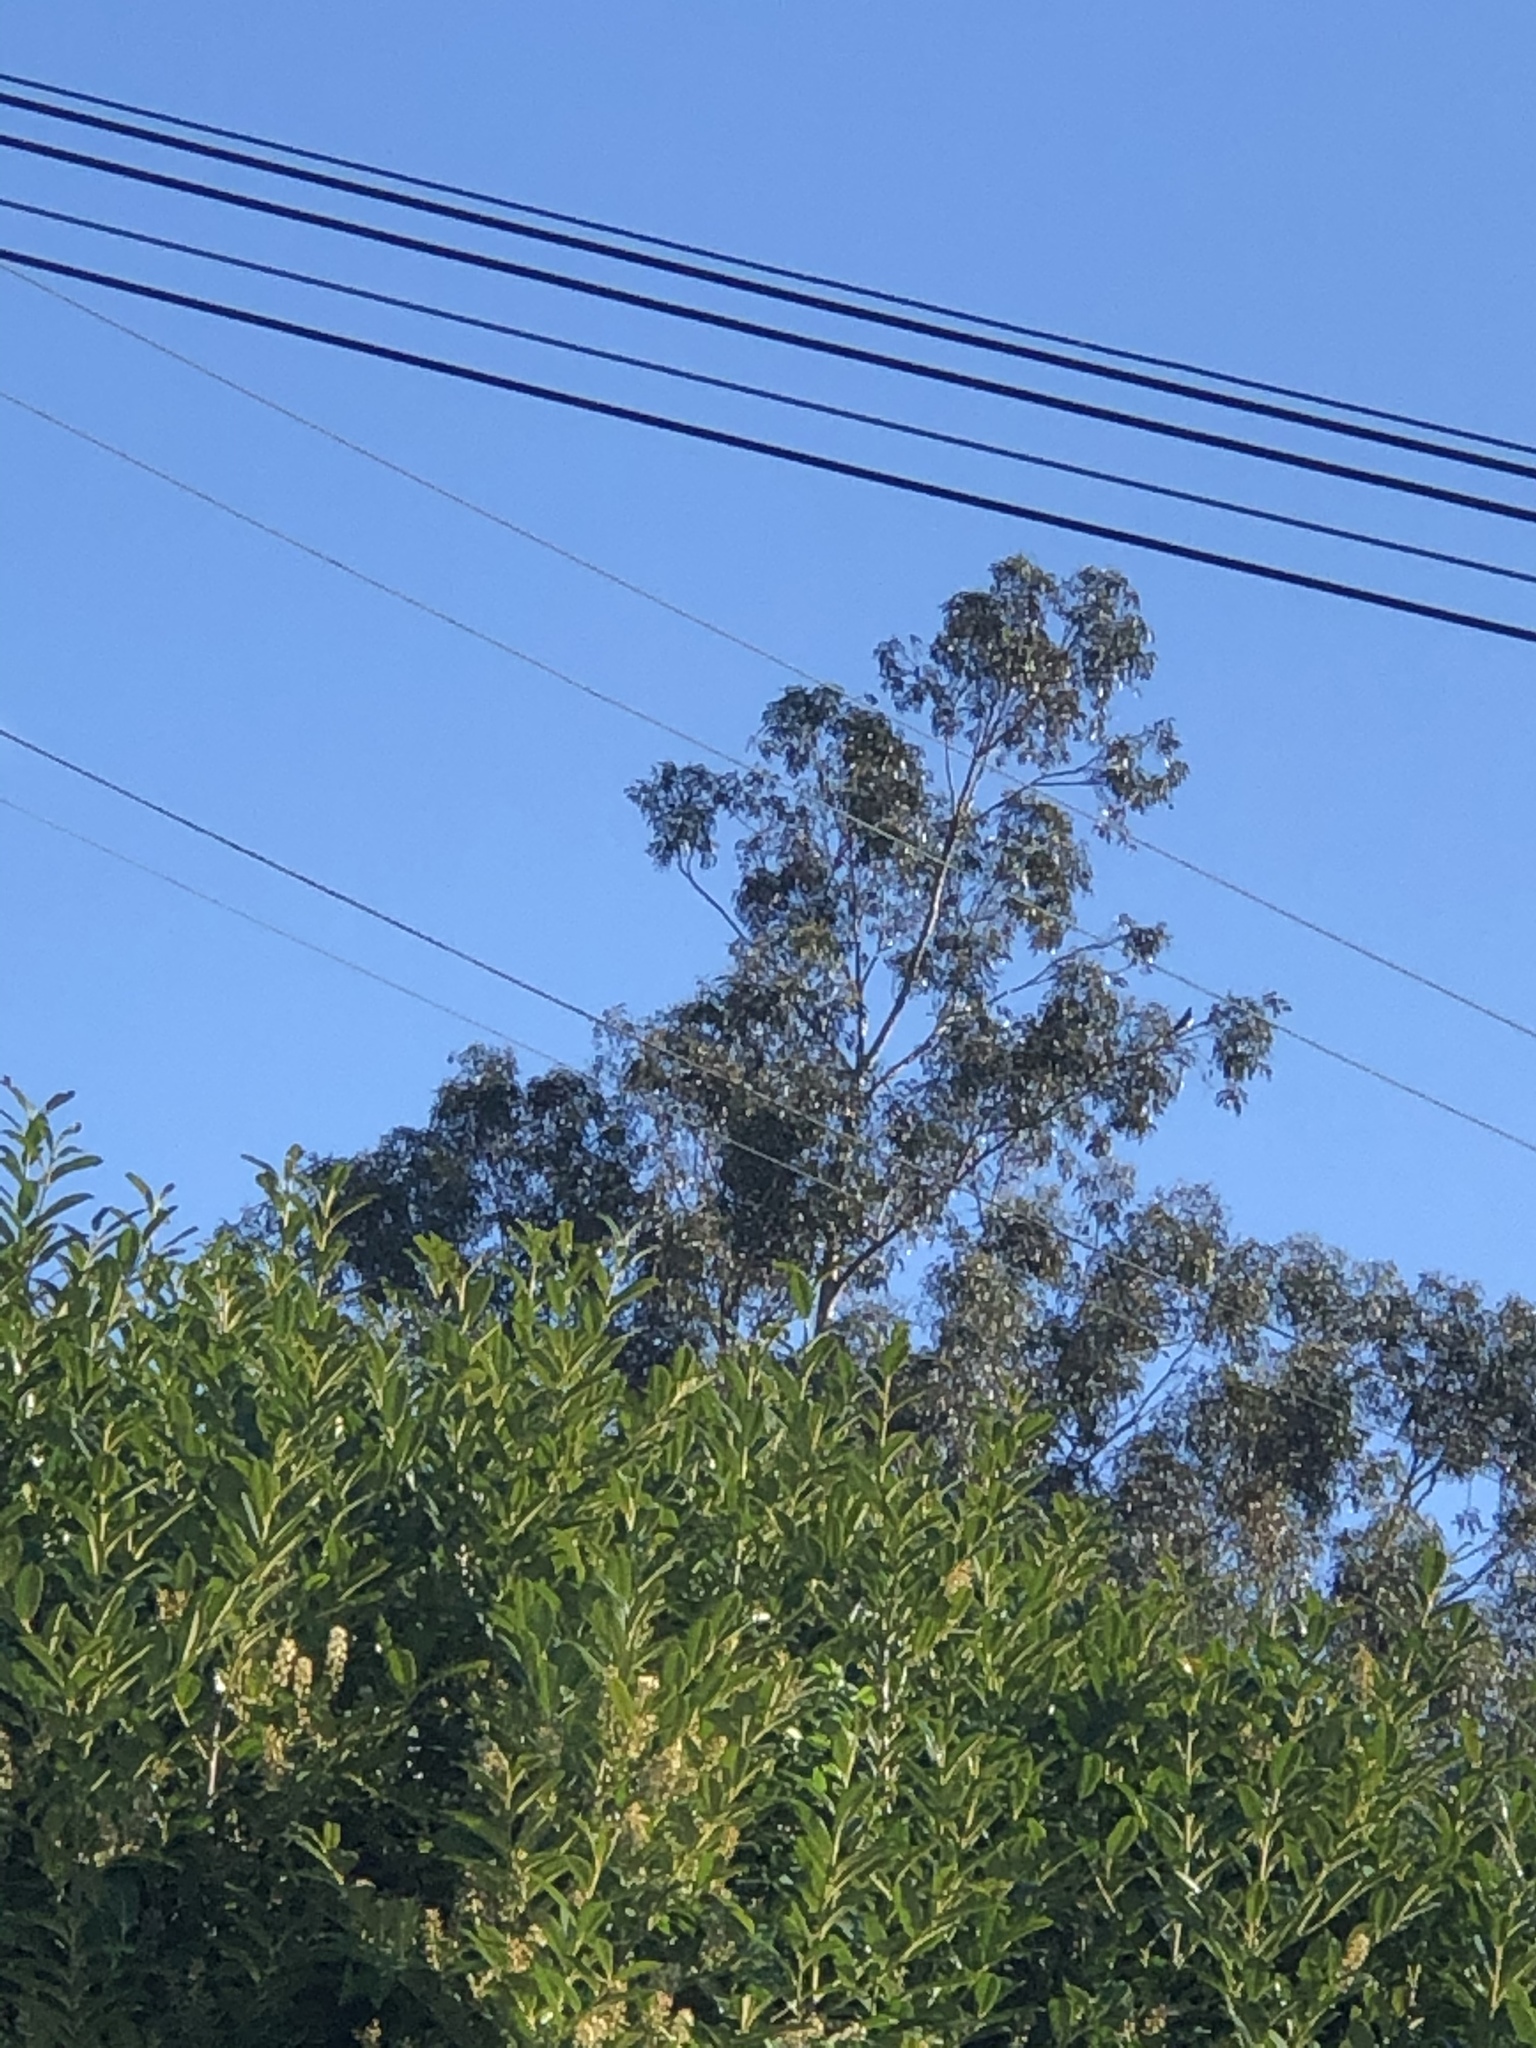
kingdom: Animalia
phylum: Chordata
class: Aves
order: Columbiformes
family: Columbidae
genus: Hemiphaga
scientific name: Hemiphaga novaeseelandiae
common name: New zealand pigeon
